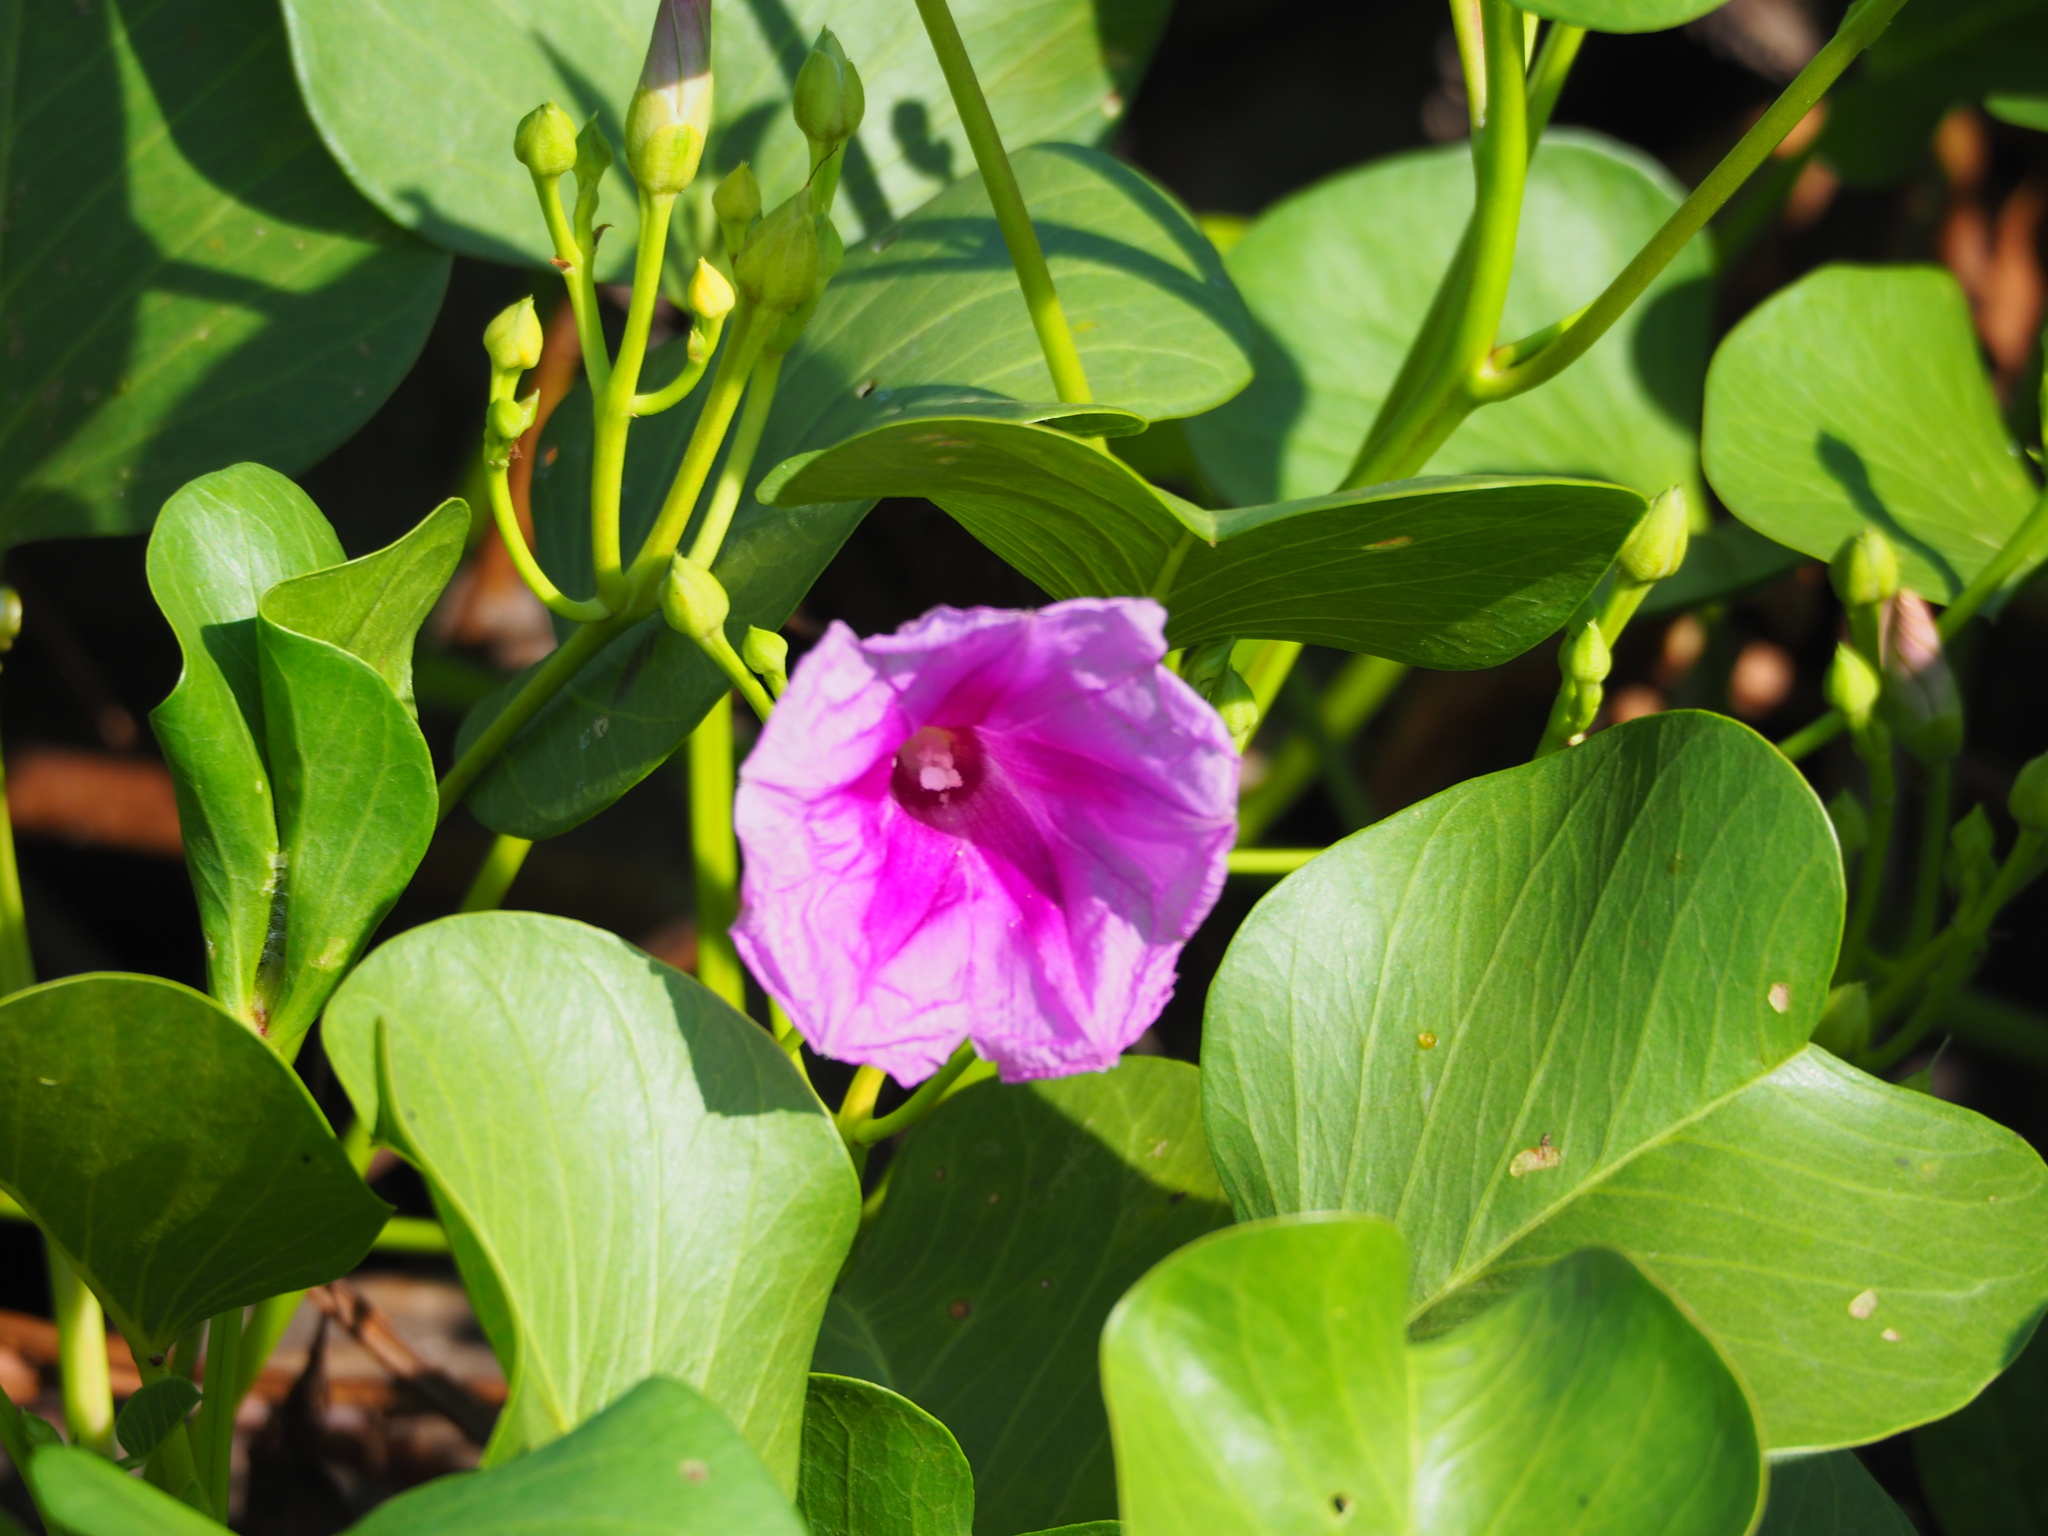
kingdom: Plantae
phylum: Tracheophyta
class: Magnoliopsida
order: Solanales
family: Convolvulaceae
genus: Ipomoea
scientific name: Ipomoea pes-caprae
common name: Beach morning glory
